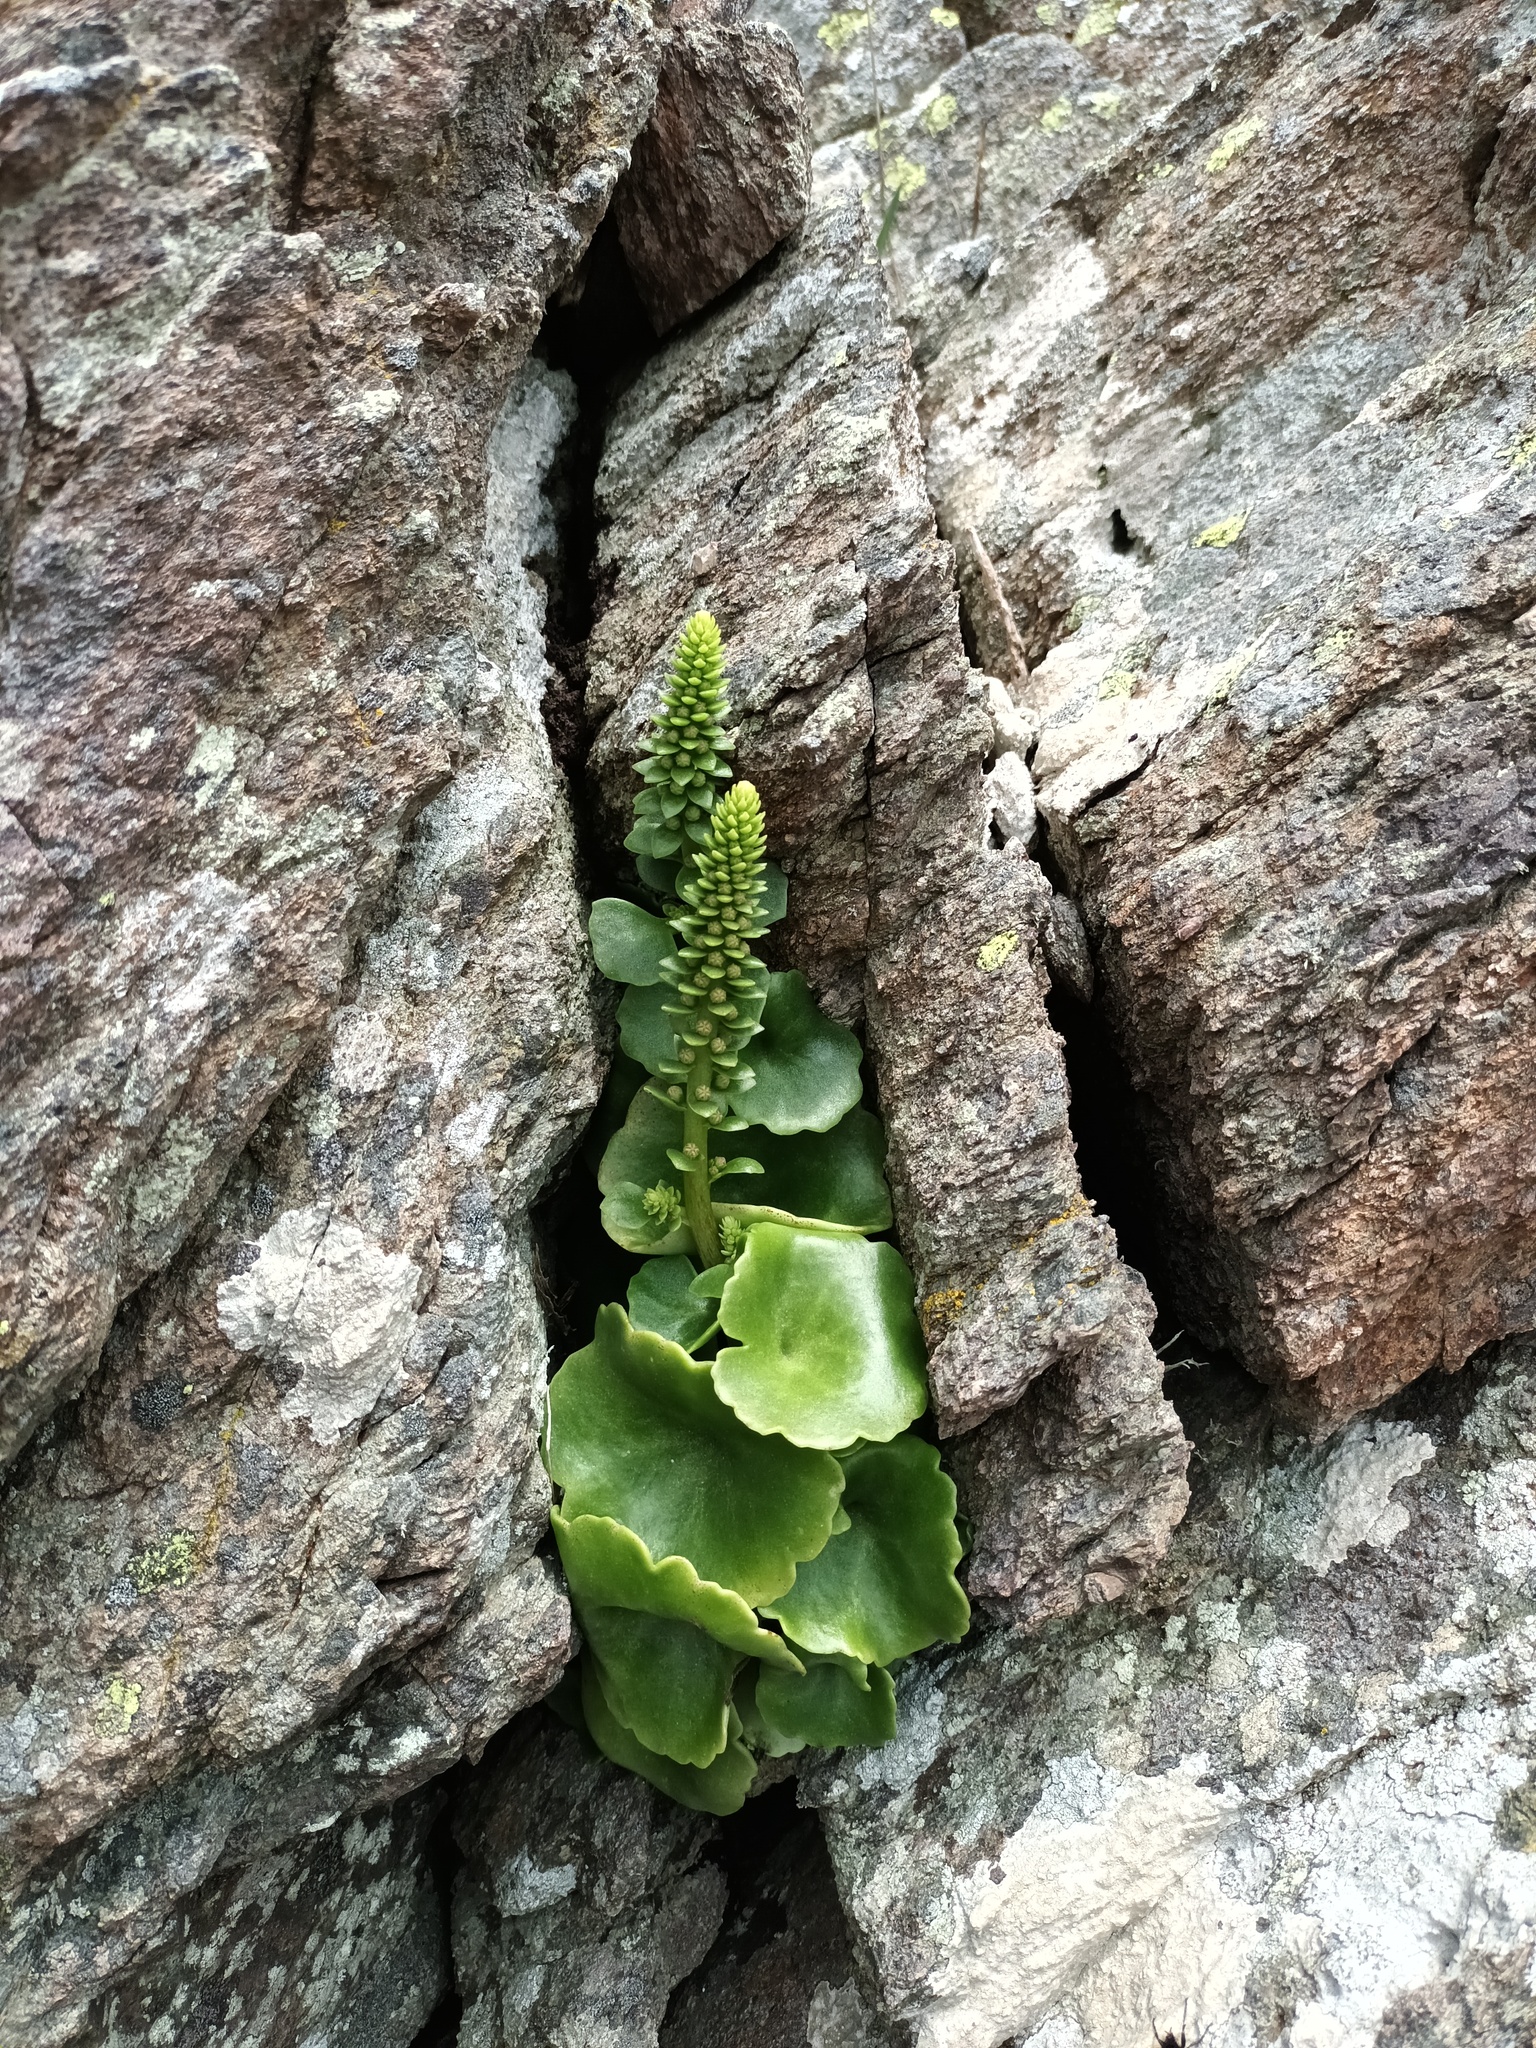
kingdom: Plantae
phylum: Tracheophyta
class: Magnoliopsida
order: Saxifragales
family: Crassulaceae
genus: Umbilicus
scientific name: Umbilicus rupestris
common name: Navelwort
